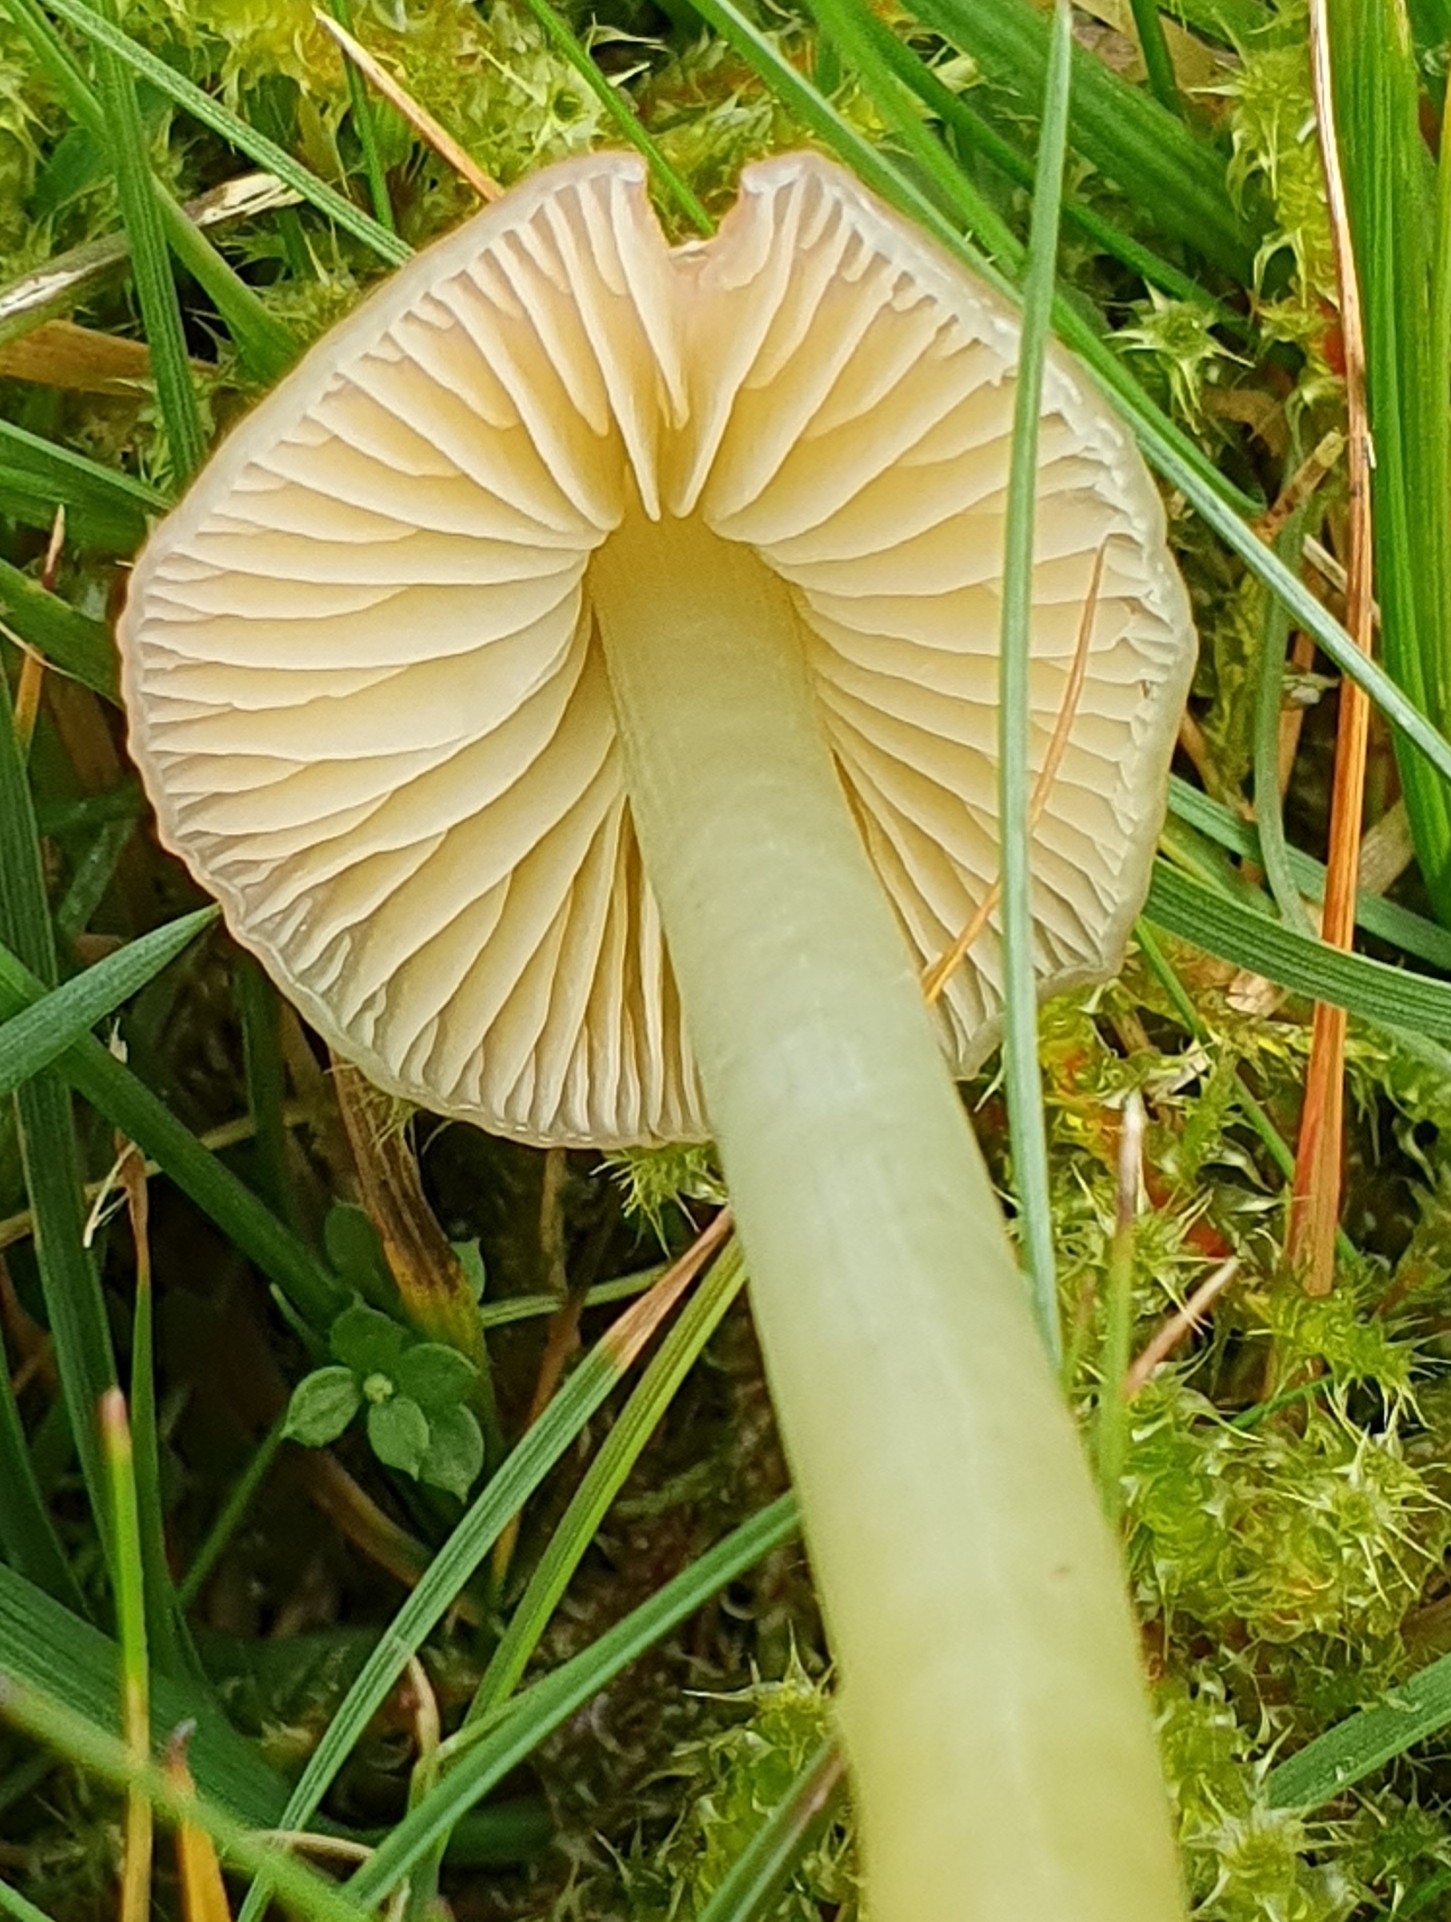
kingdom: Fungi
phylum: Basidiomycota
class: Agaricomycetes
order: Agaricales
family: Hygrophoraceae
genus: Gliophorus
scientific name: Gliophorus psittacinus
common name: Parrot wax-cap
